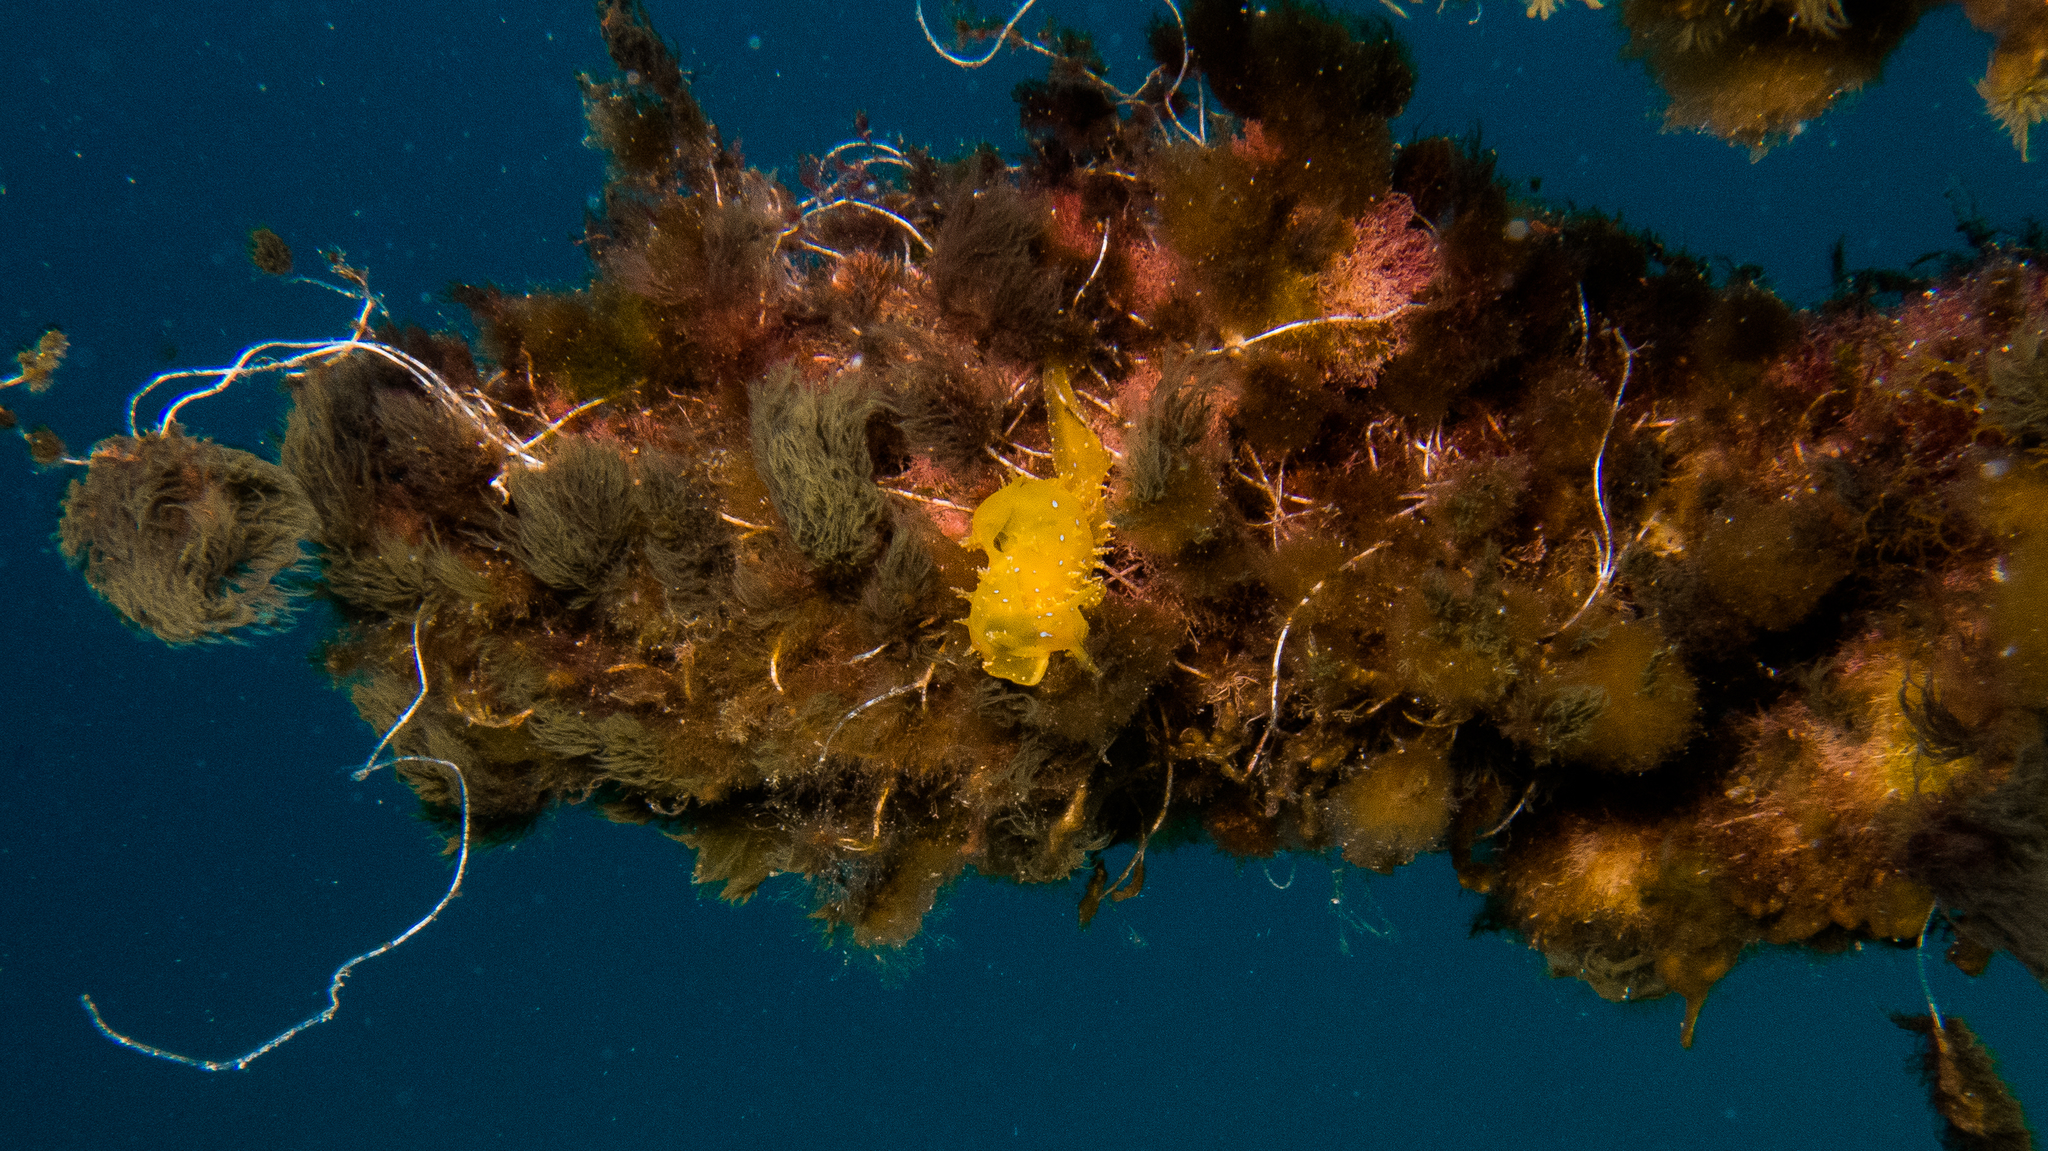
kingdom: Animalia
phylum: Mollusca
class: Gastropoda
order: Aplysiida
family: Aplysiidae
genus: Stylocheilus
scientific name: Stylocheilus longicauda
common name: Blue-ring sea hare
